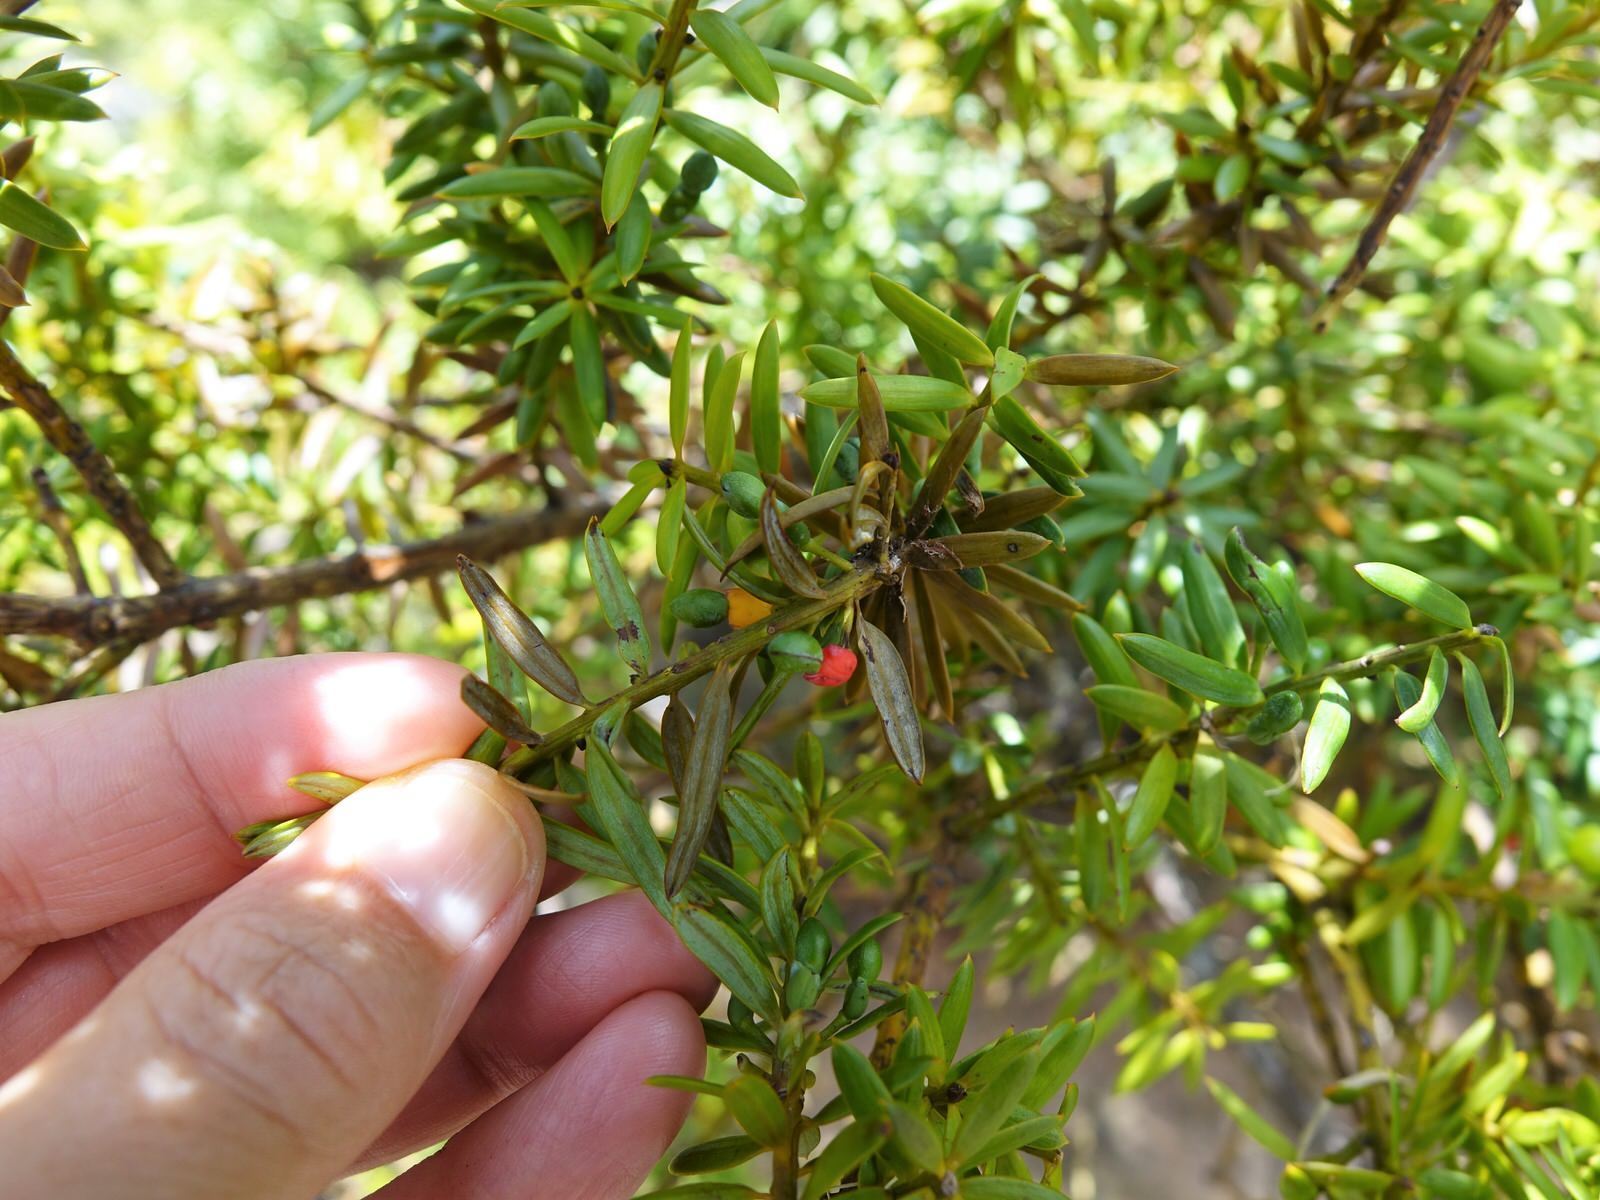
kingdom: Plantae
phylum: Tracheophyta
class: Pinopsida
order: Pinales
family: Podocarpaceae
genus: Podocarpus
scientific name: Podocarpus totara
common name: Totara
